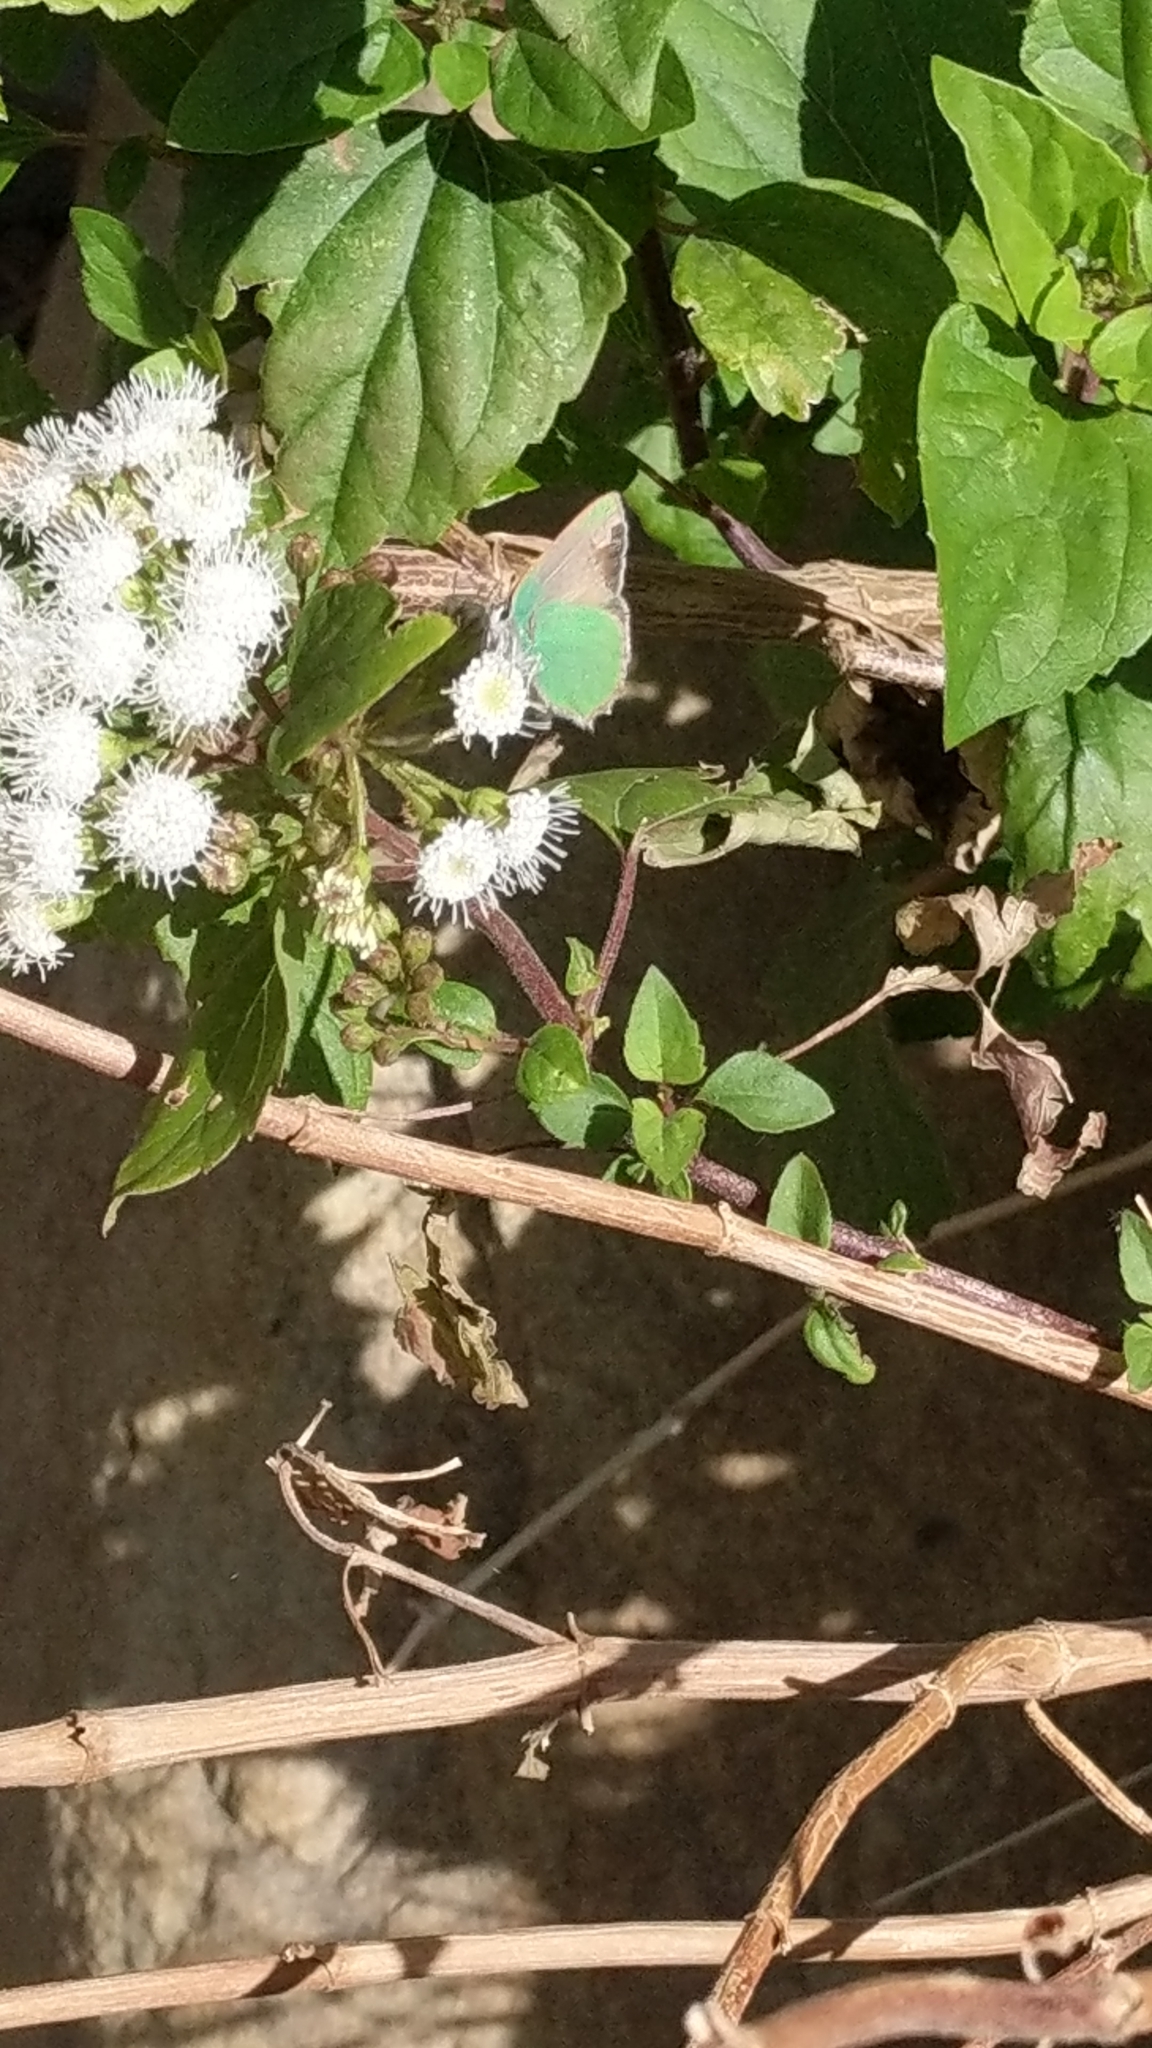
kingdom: Animalia
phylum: Arthropoda
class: Insecta
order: Lepidoptera
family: Lycaenidae
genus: Callophrys
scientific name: Callophrys dumetorum
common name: Bramble hairstreak
